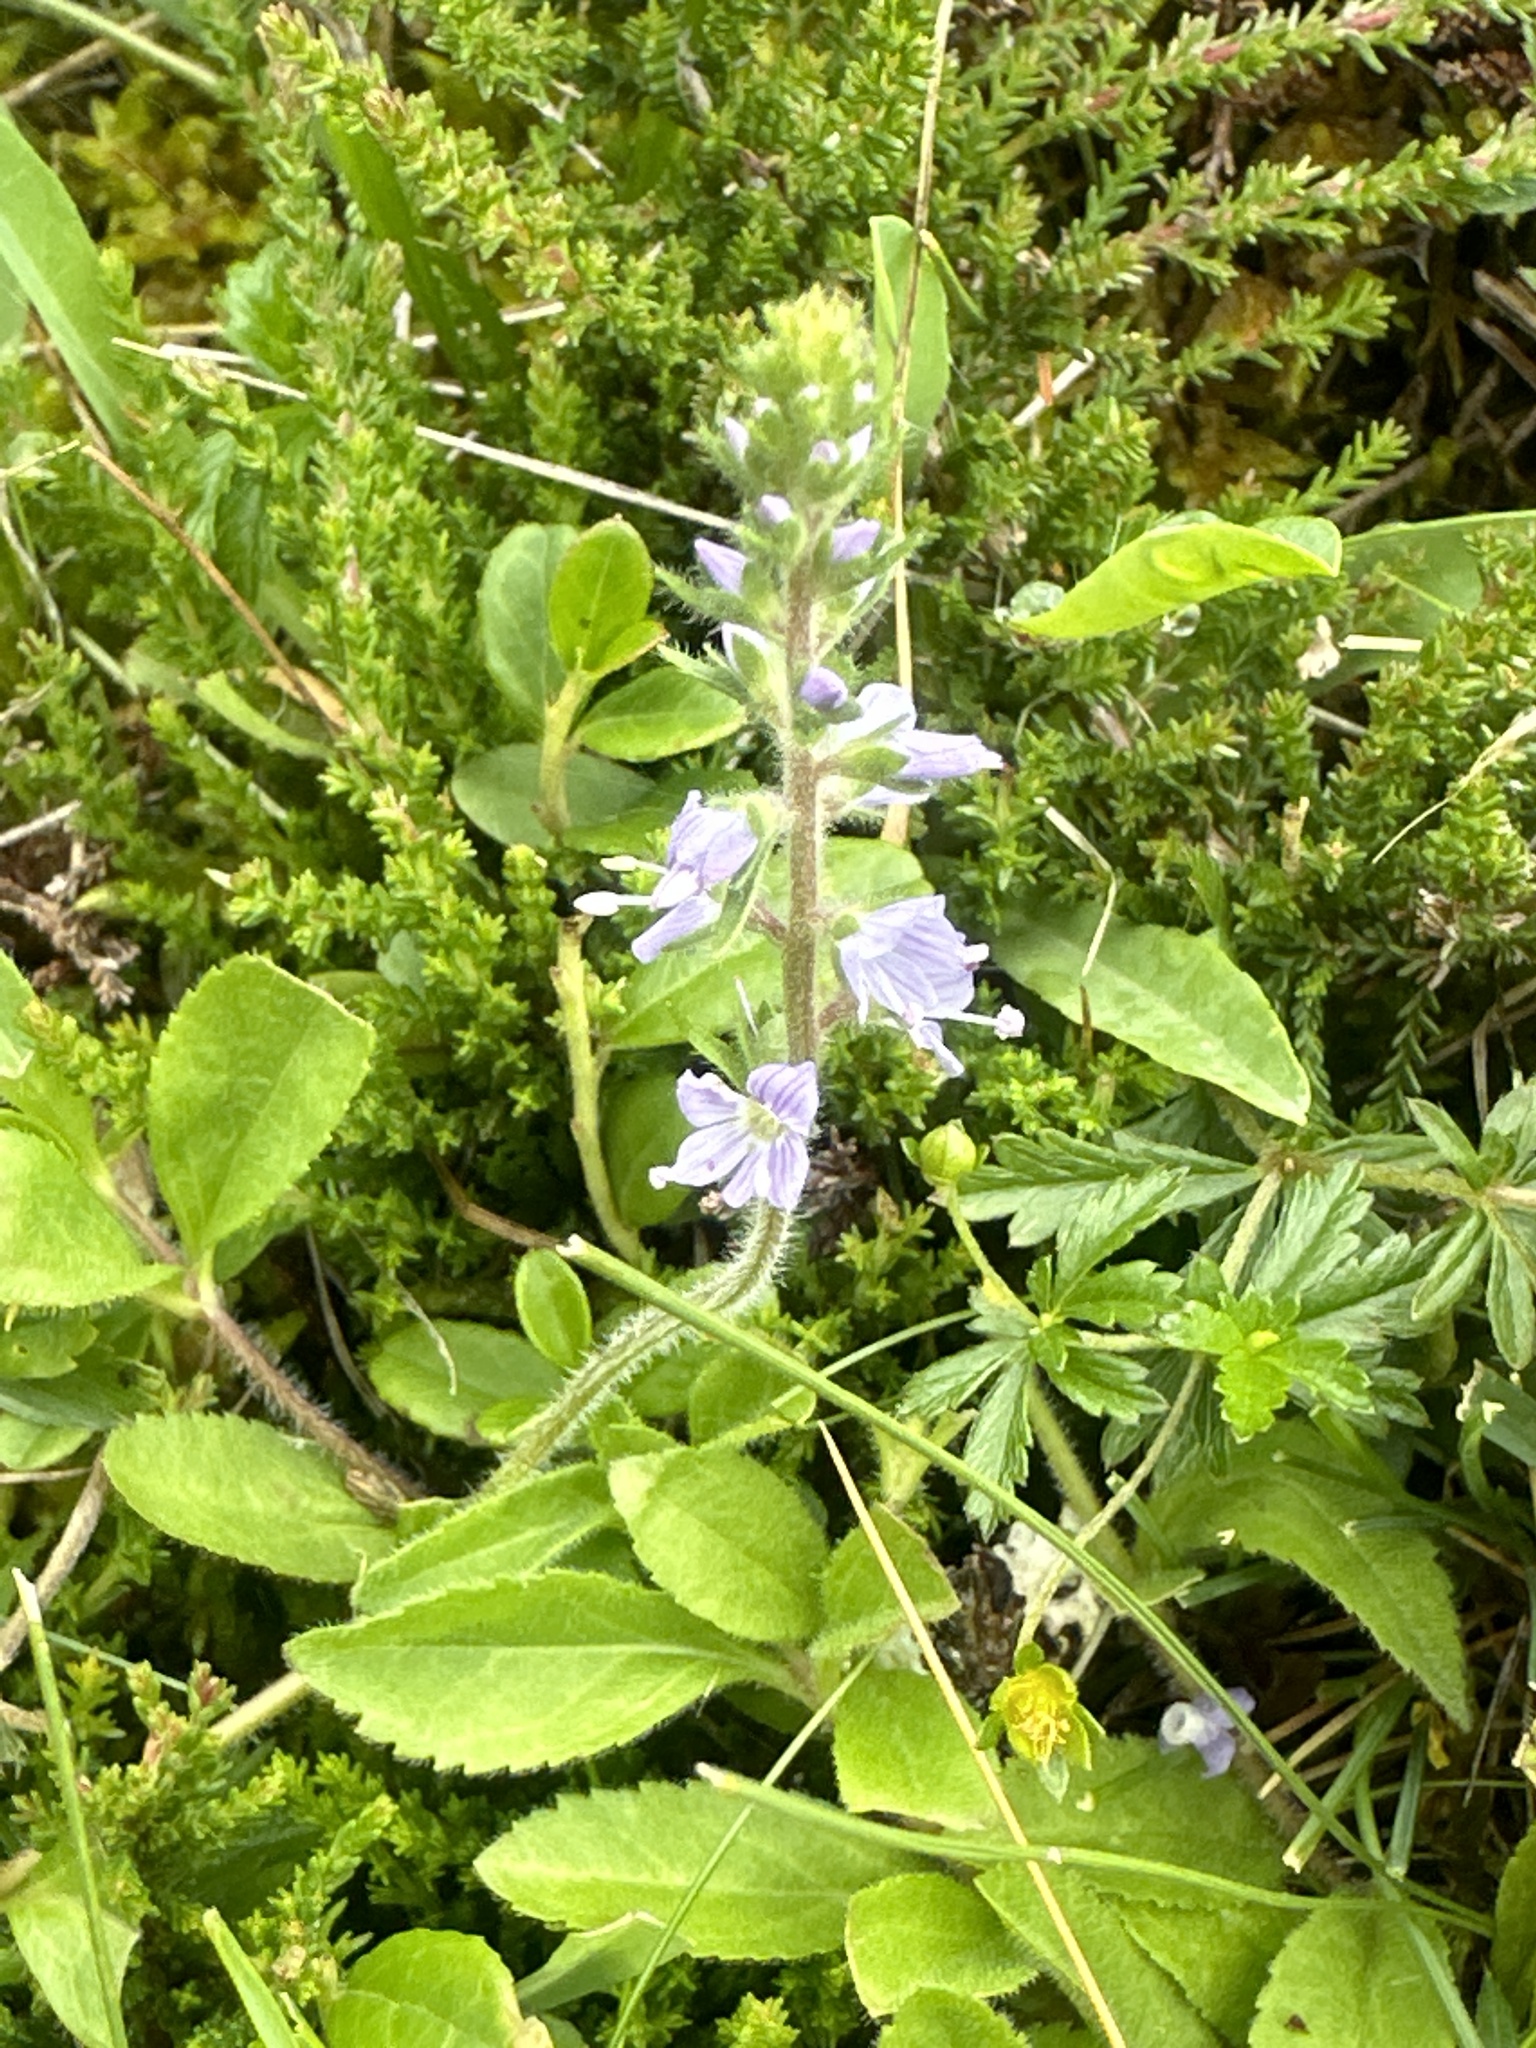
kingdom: Plantae
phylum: Tracheophyta
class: Magnoliopsida
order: Lamiales
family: Plantaginaceae
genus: Veronica
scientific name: Veronica officinalis
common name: Common speedwell
